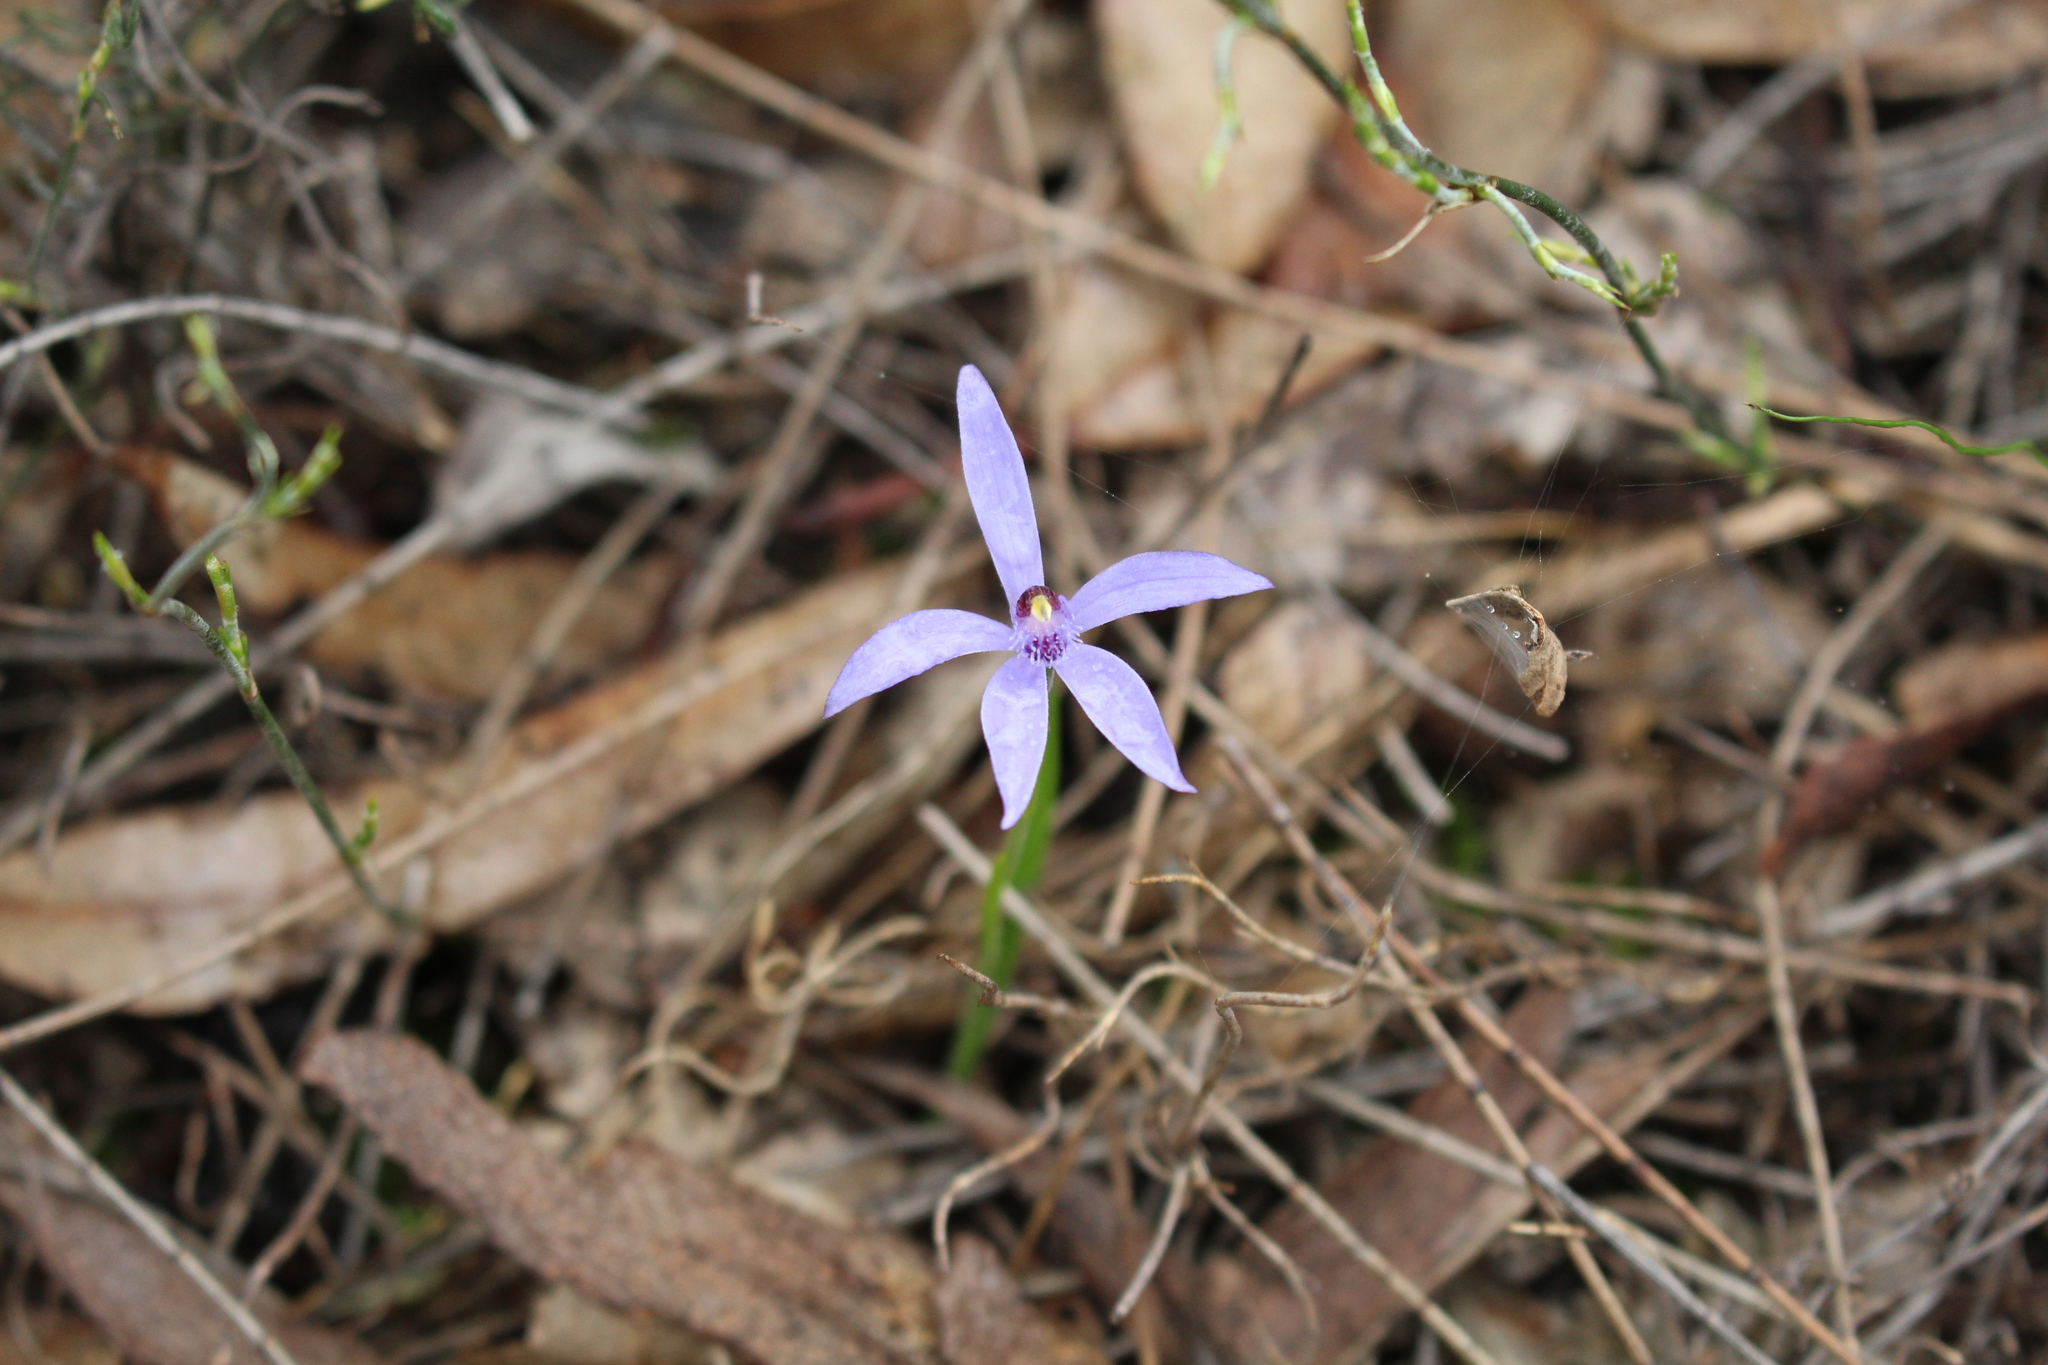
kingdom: Plantae
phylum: Tracheophyta
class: Liliopsida
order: Asparagales
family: Orchidaceae
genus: Pheladenia
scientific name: Pheladenia deformis
